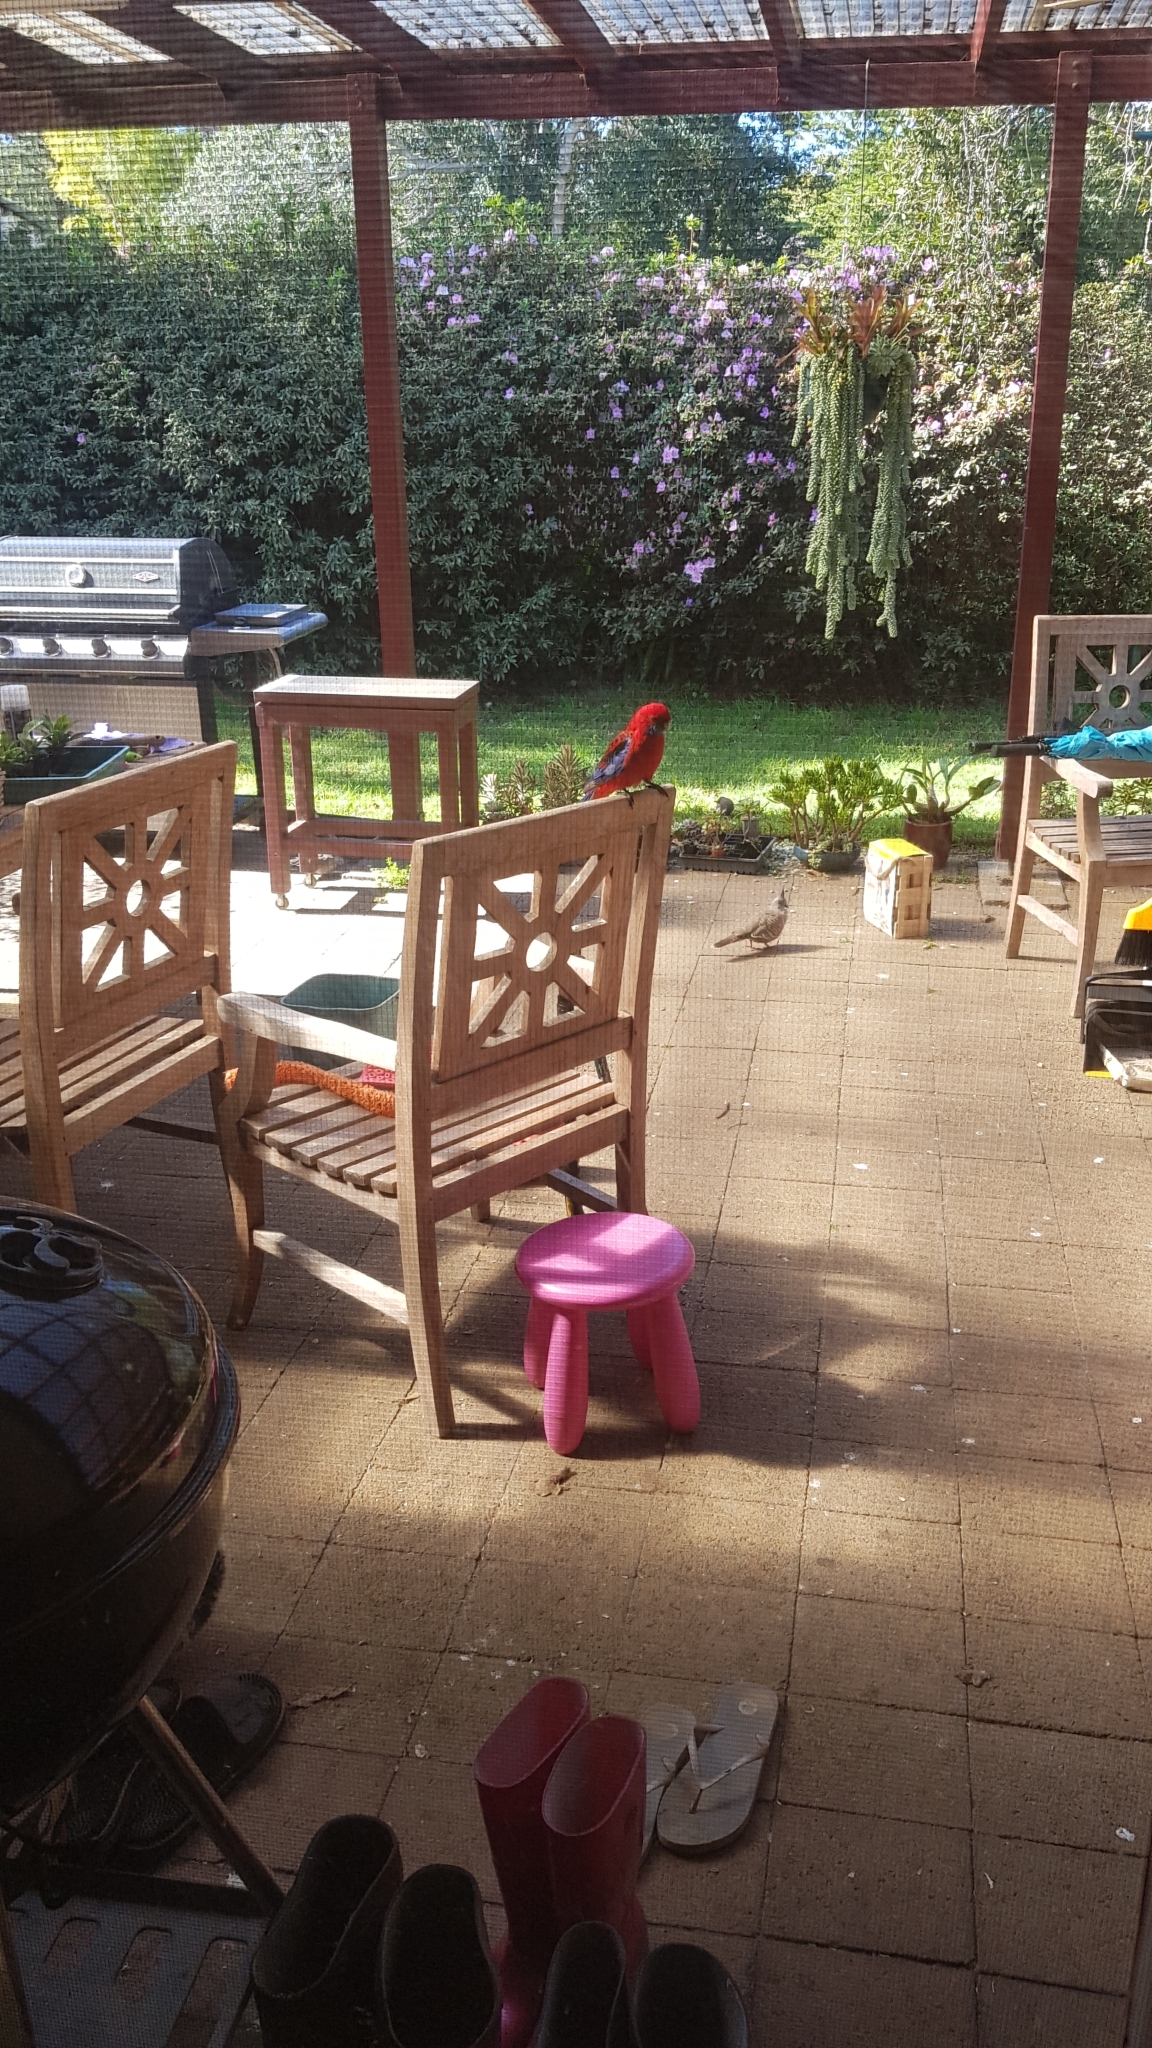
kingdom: Animalia
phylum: Chordata
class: Aves
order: Psittaciformes
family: Psittacidae
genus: Platycercus
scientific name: Platycercus elegans
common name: Crimson rosella
